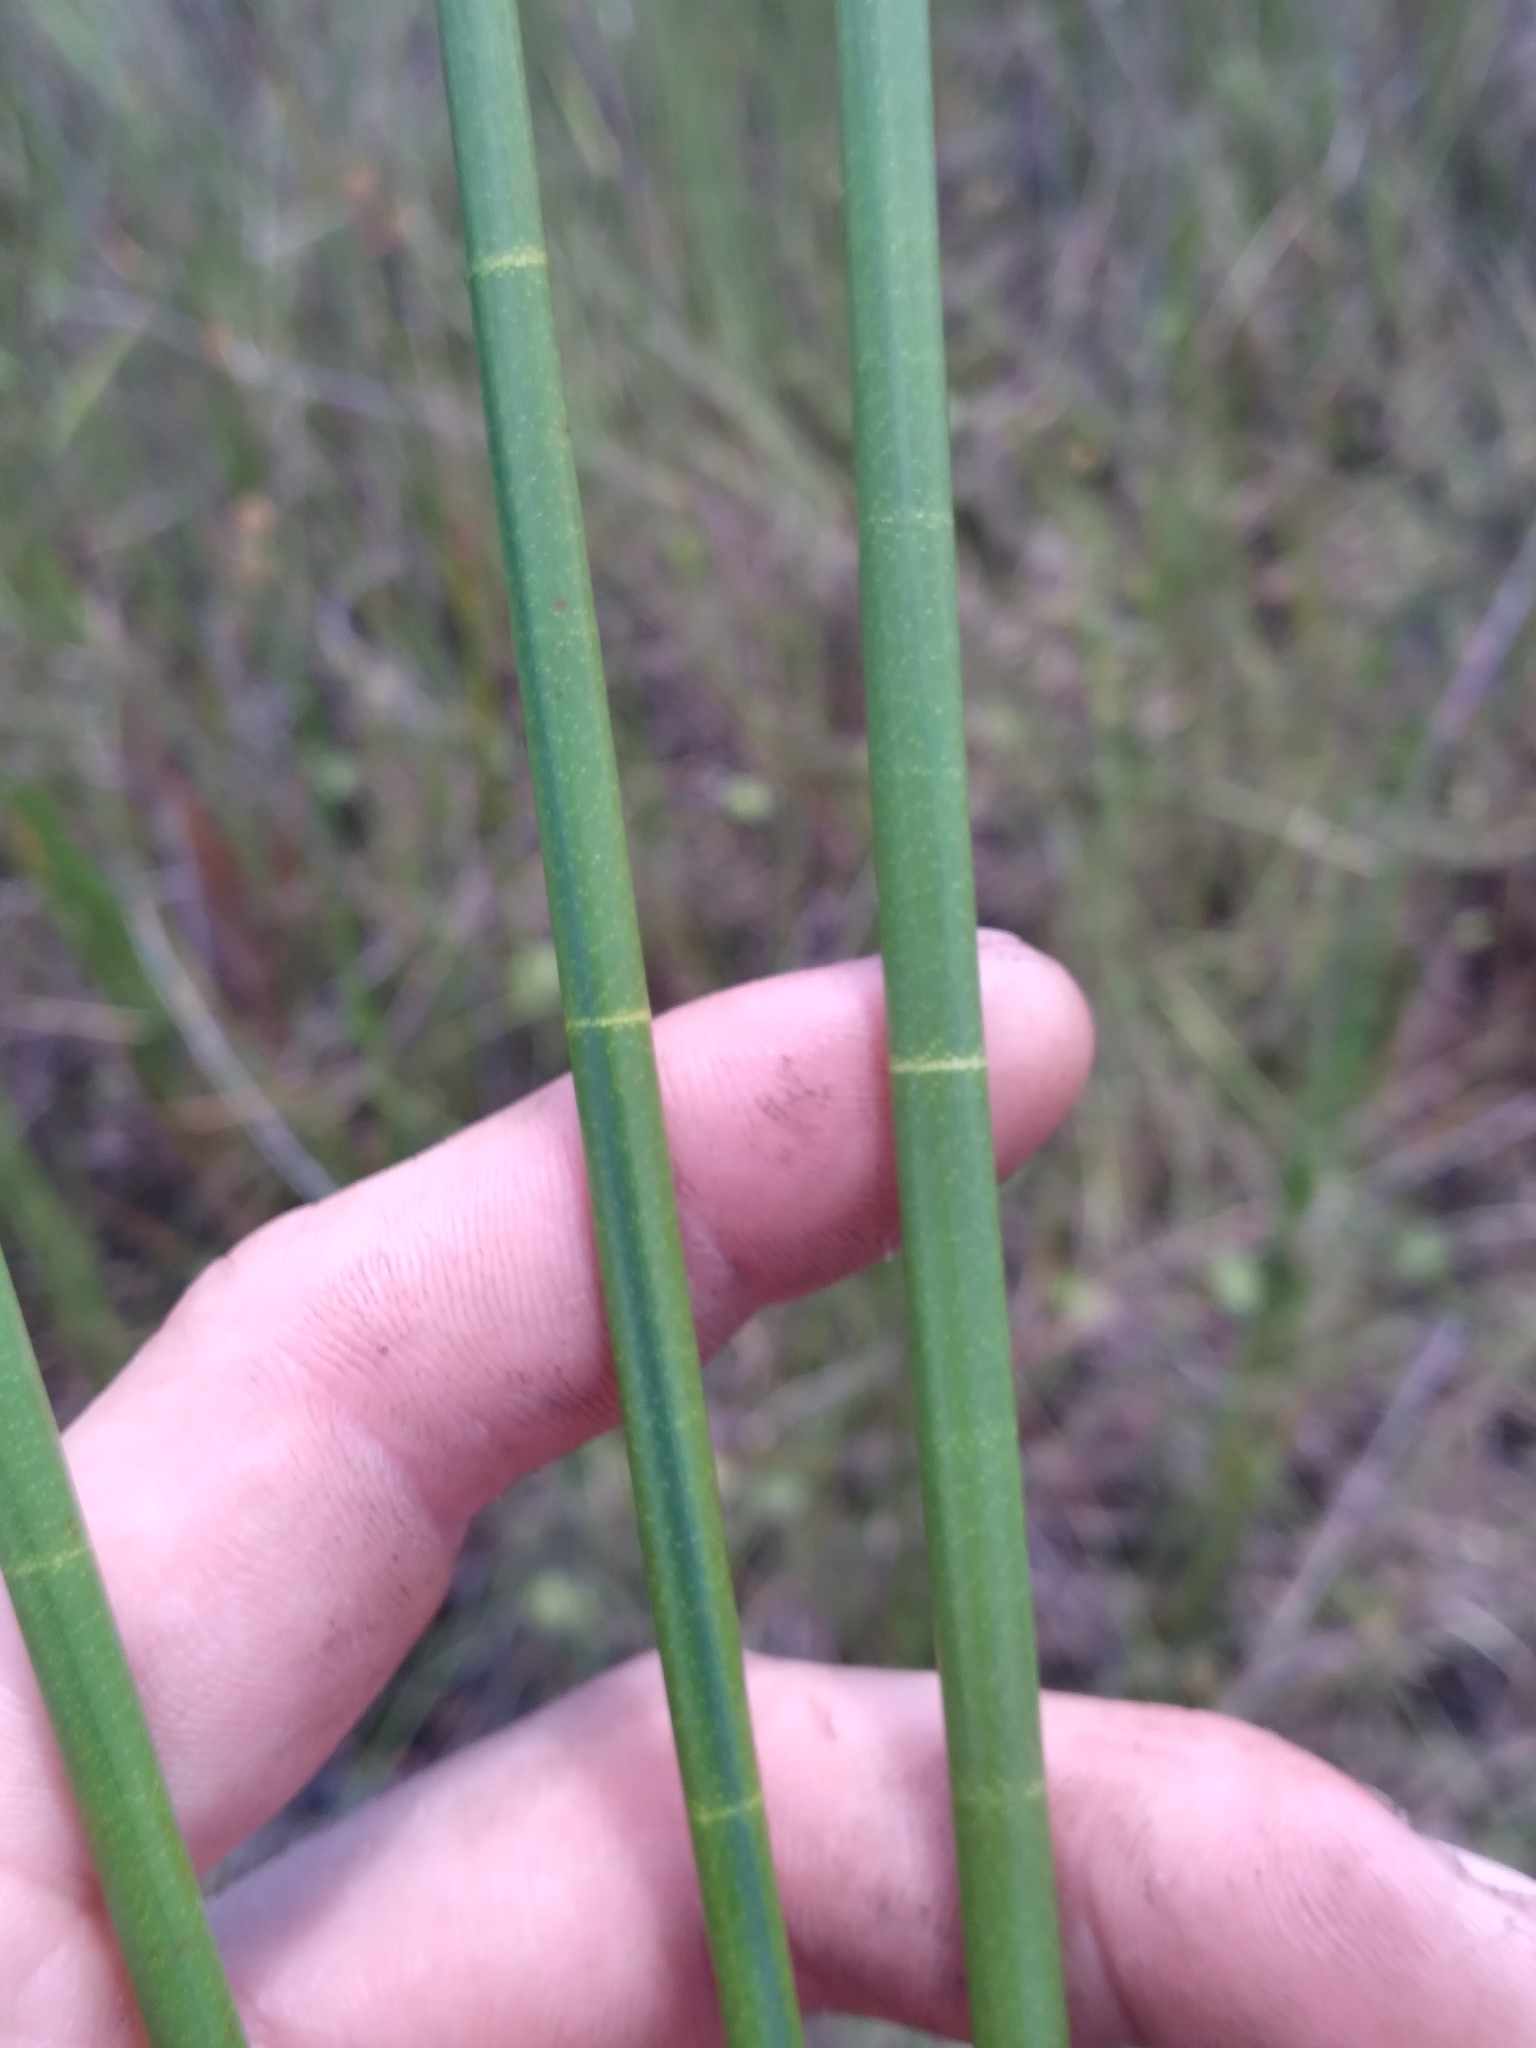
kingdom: Plantae
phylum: Tracheophyta
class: Liliopsida
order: Poales
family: Cyperaceae
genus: Eleocharis
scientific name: Eleocharis equisetoides
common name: Horsetail spike-rush
